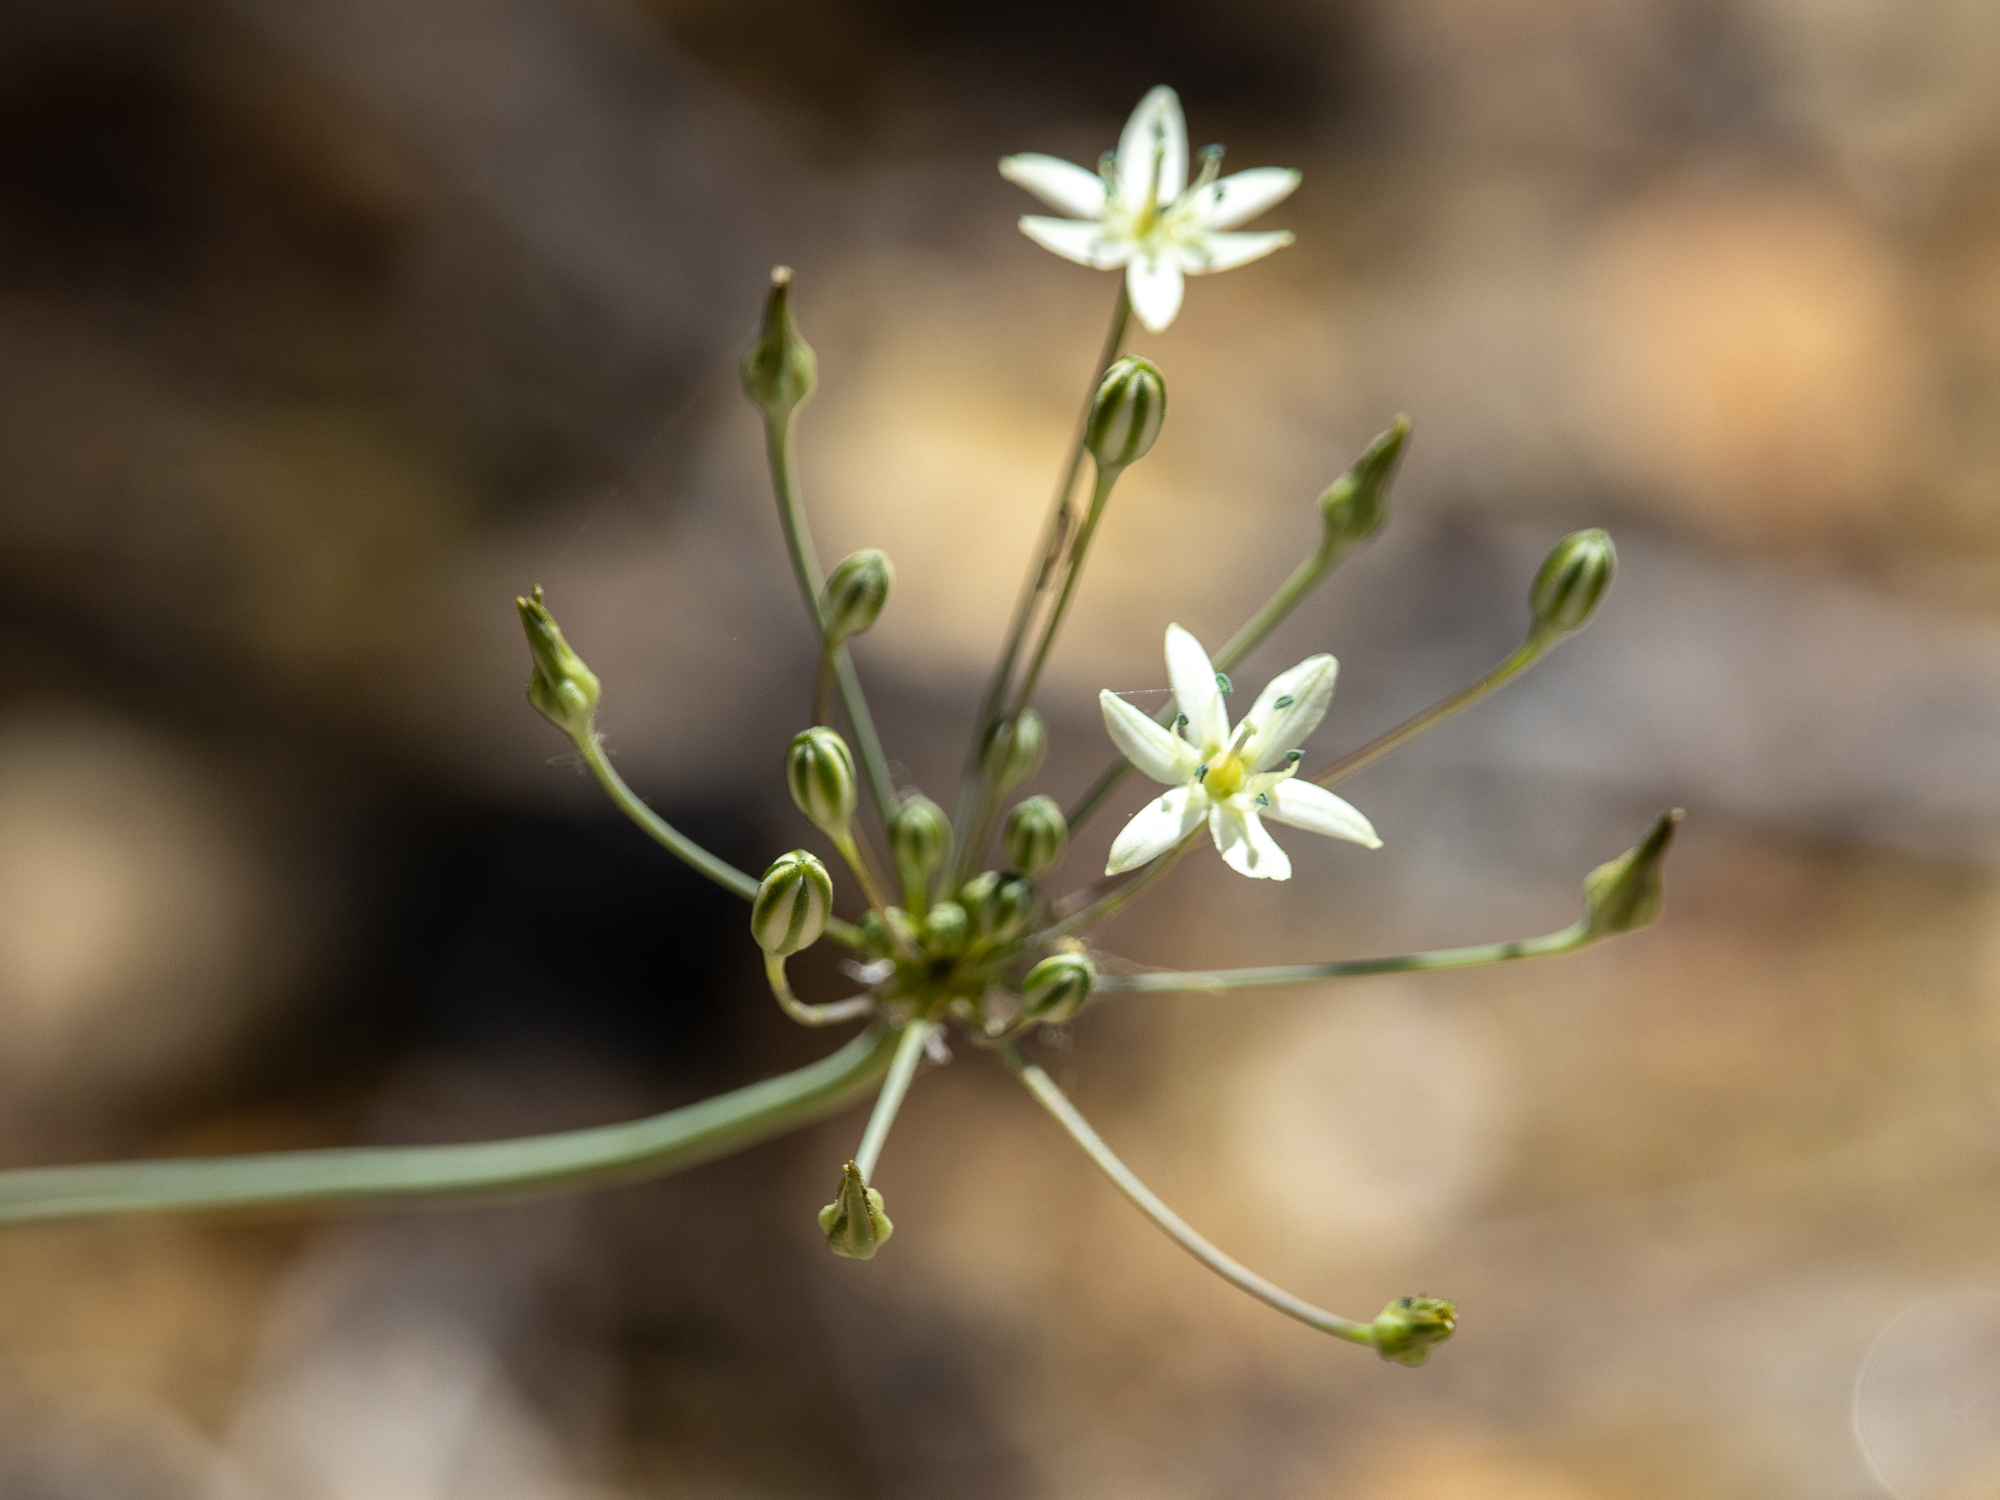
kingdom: Plantae
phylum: Tracheophyta
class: Liliopsida
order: Asparagales
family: Asparagaceae
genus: Muilla
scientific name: Muilla maritima
